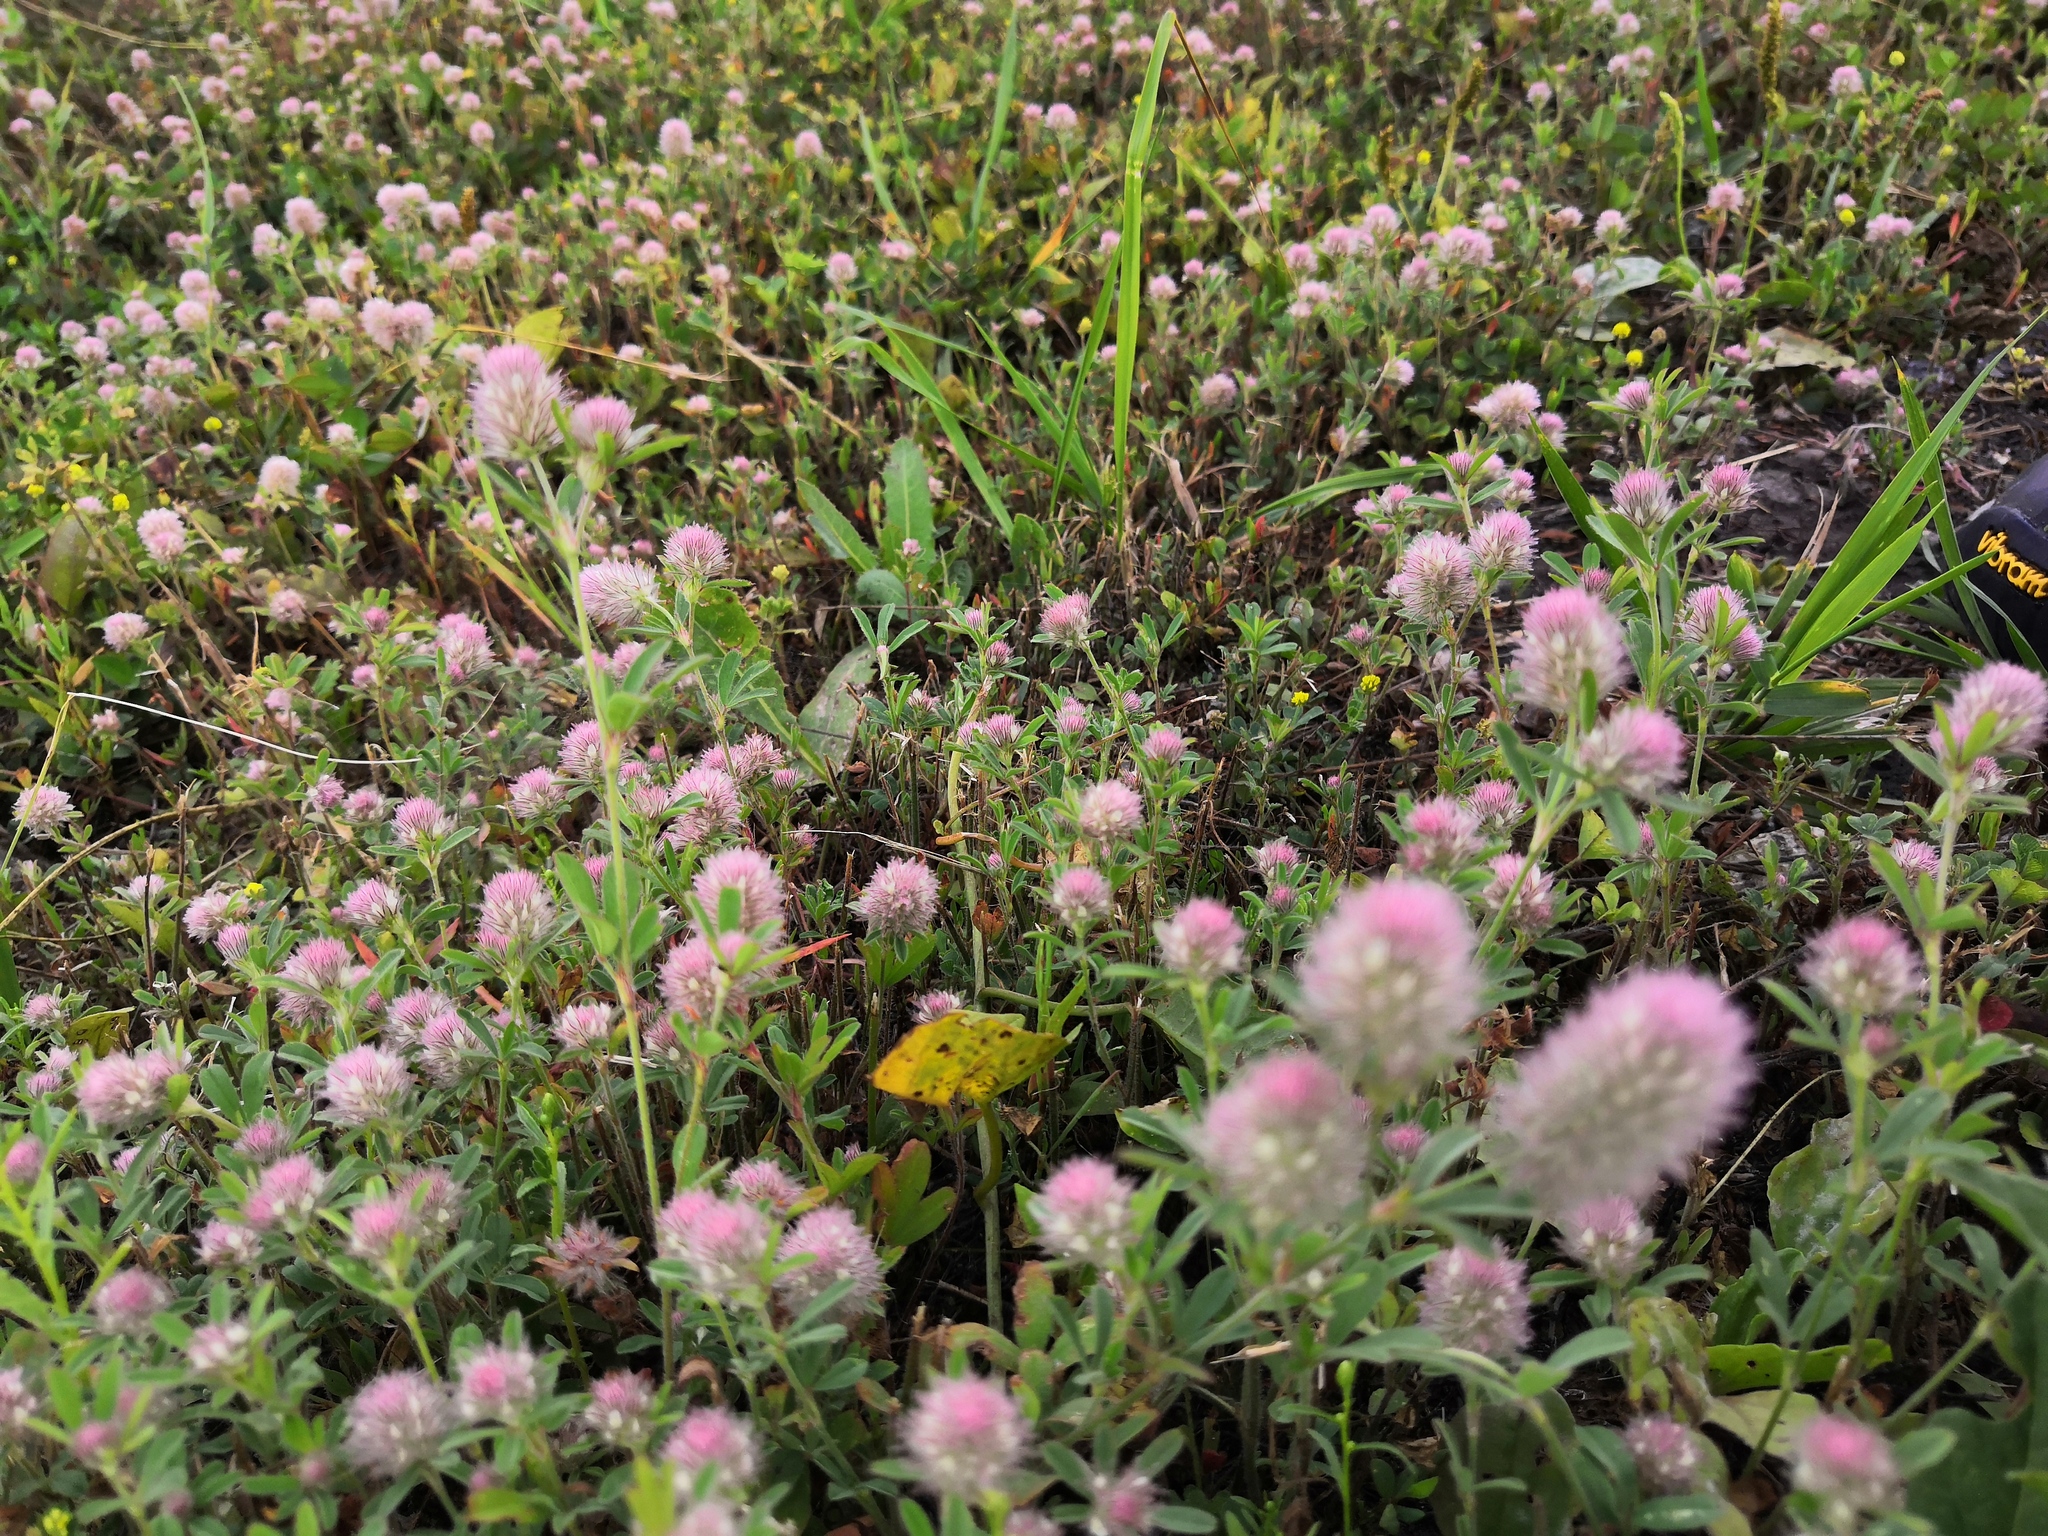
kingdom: Plantae
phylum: Tracheophyta
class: Magnoliopsida
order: Fabales
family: Fabaceae
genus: Trifolium
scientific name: Trifolium arvense
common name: Hare's-foot clover
